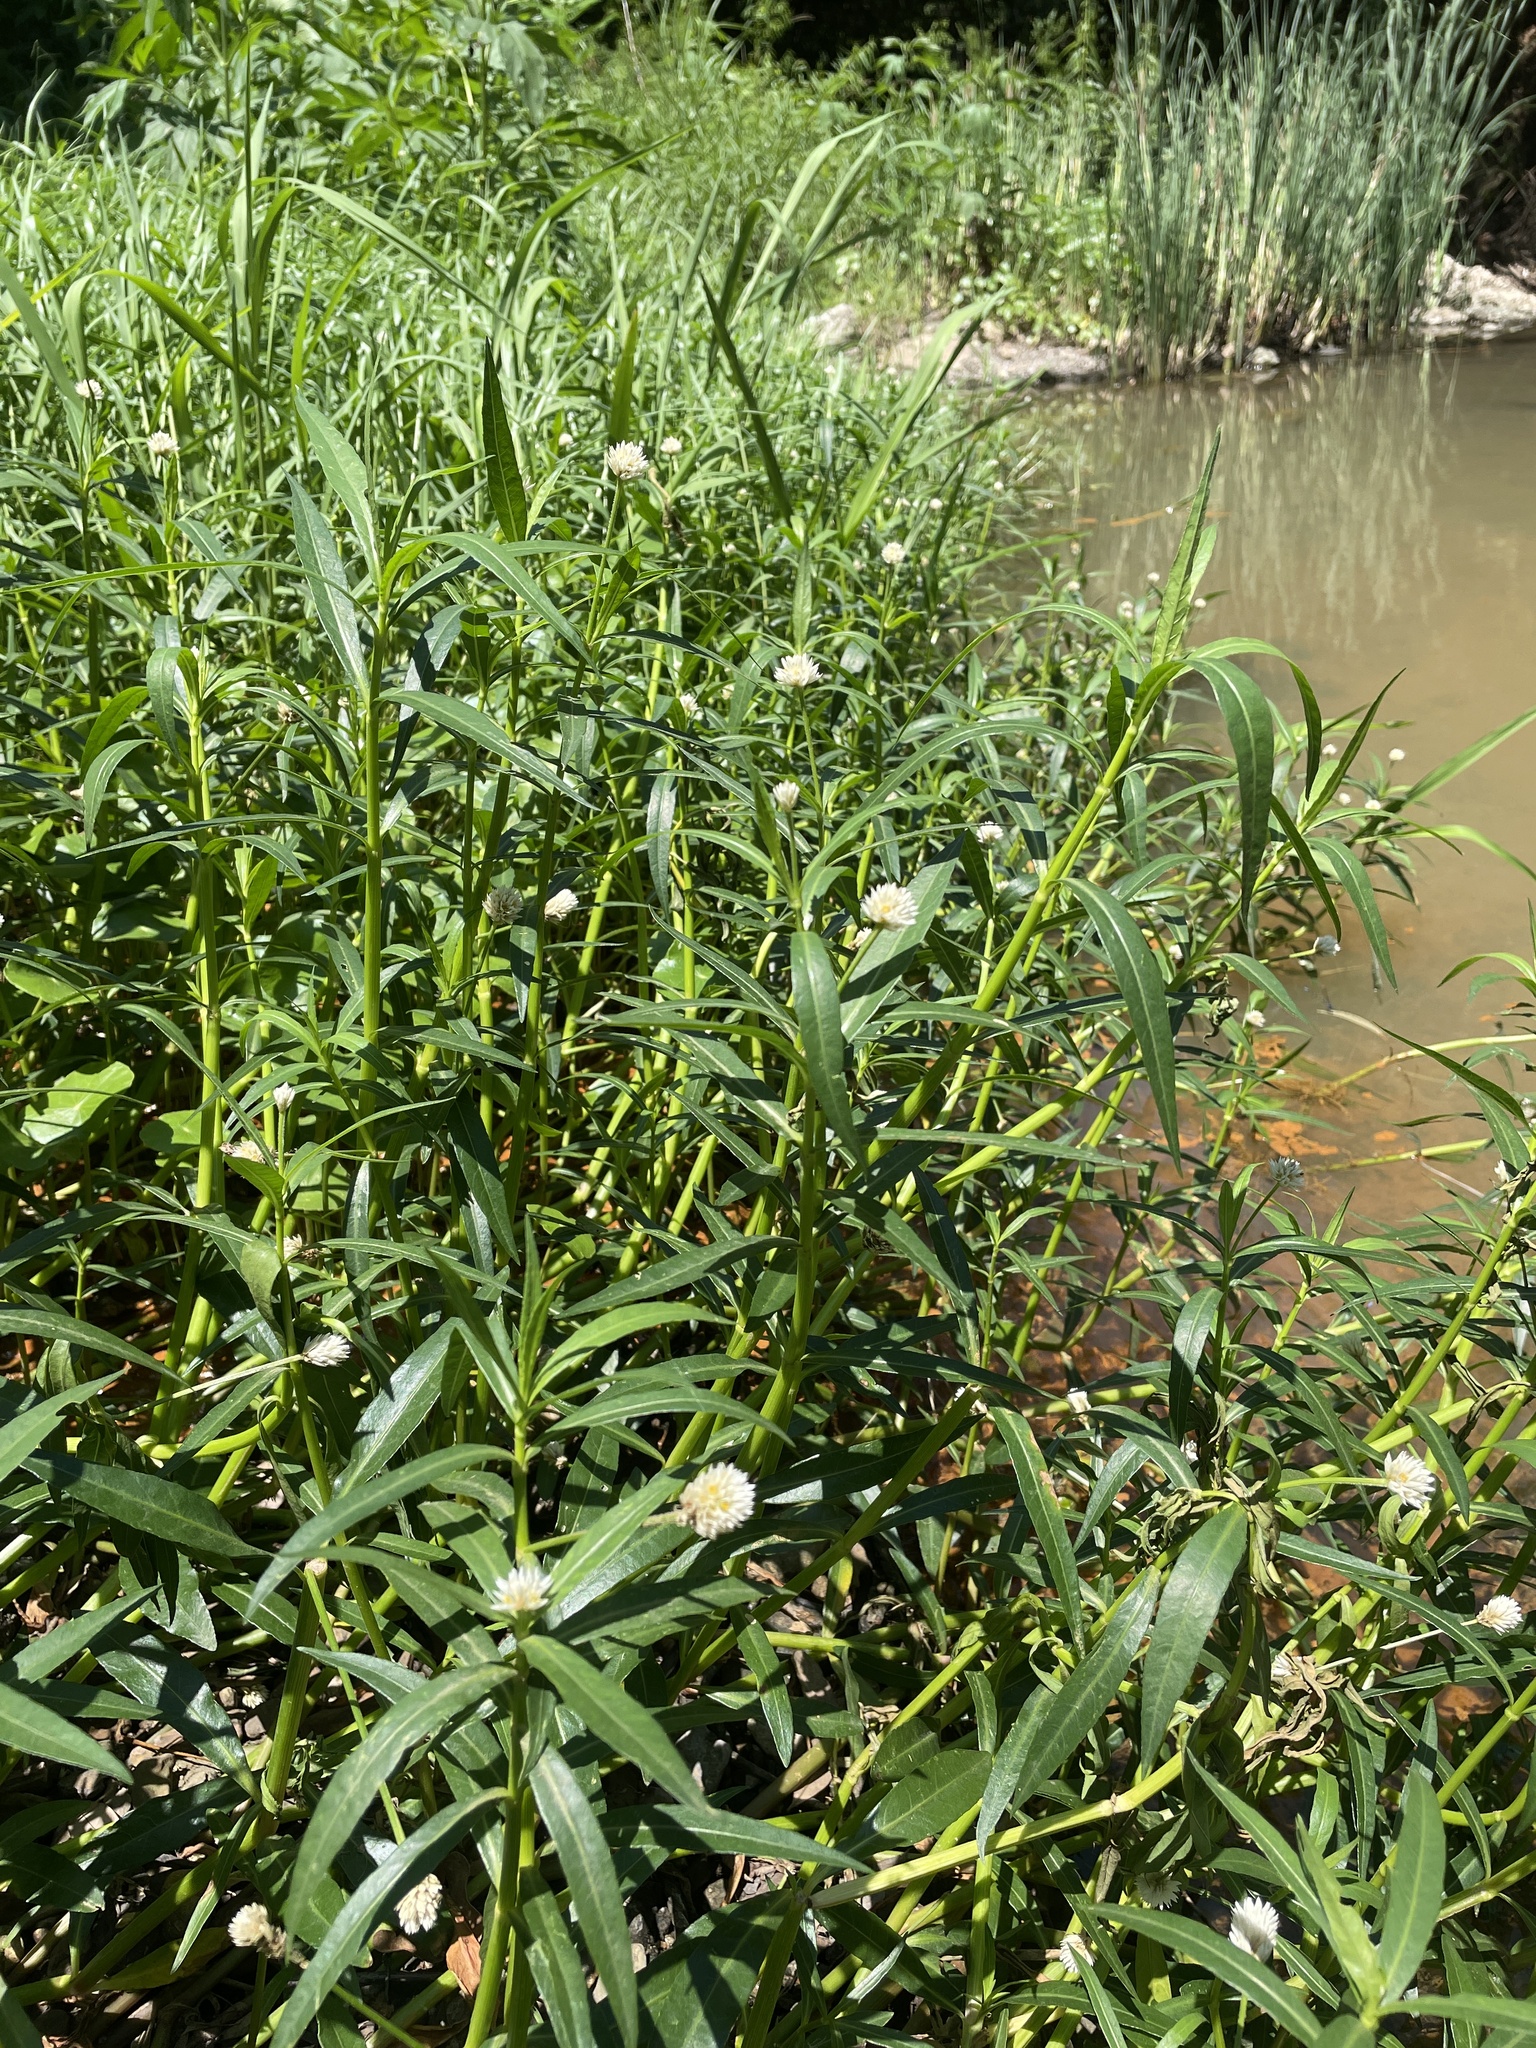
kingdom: Plantae
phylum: Tracheophyta
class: Magnoliopsida
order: Caryophyllales
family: Amaranthaceae
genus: Alternanthera
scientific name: Alternanthera philoxeroides
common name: Alligatorweed
